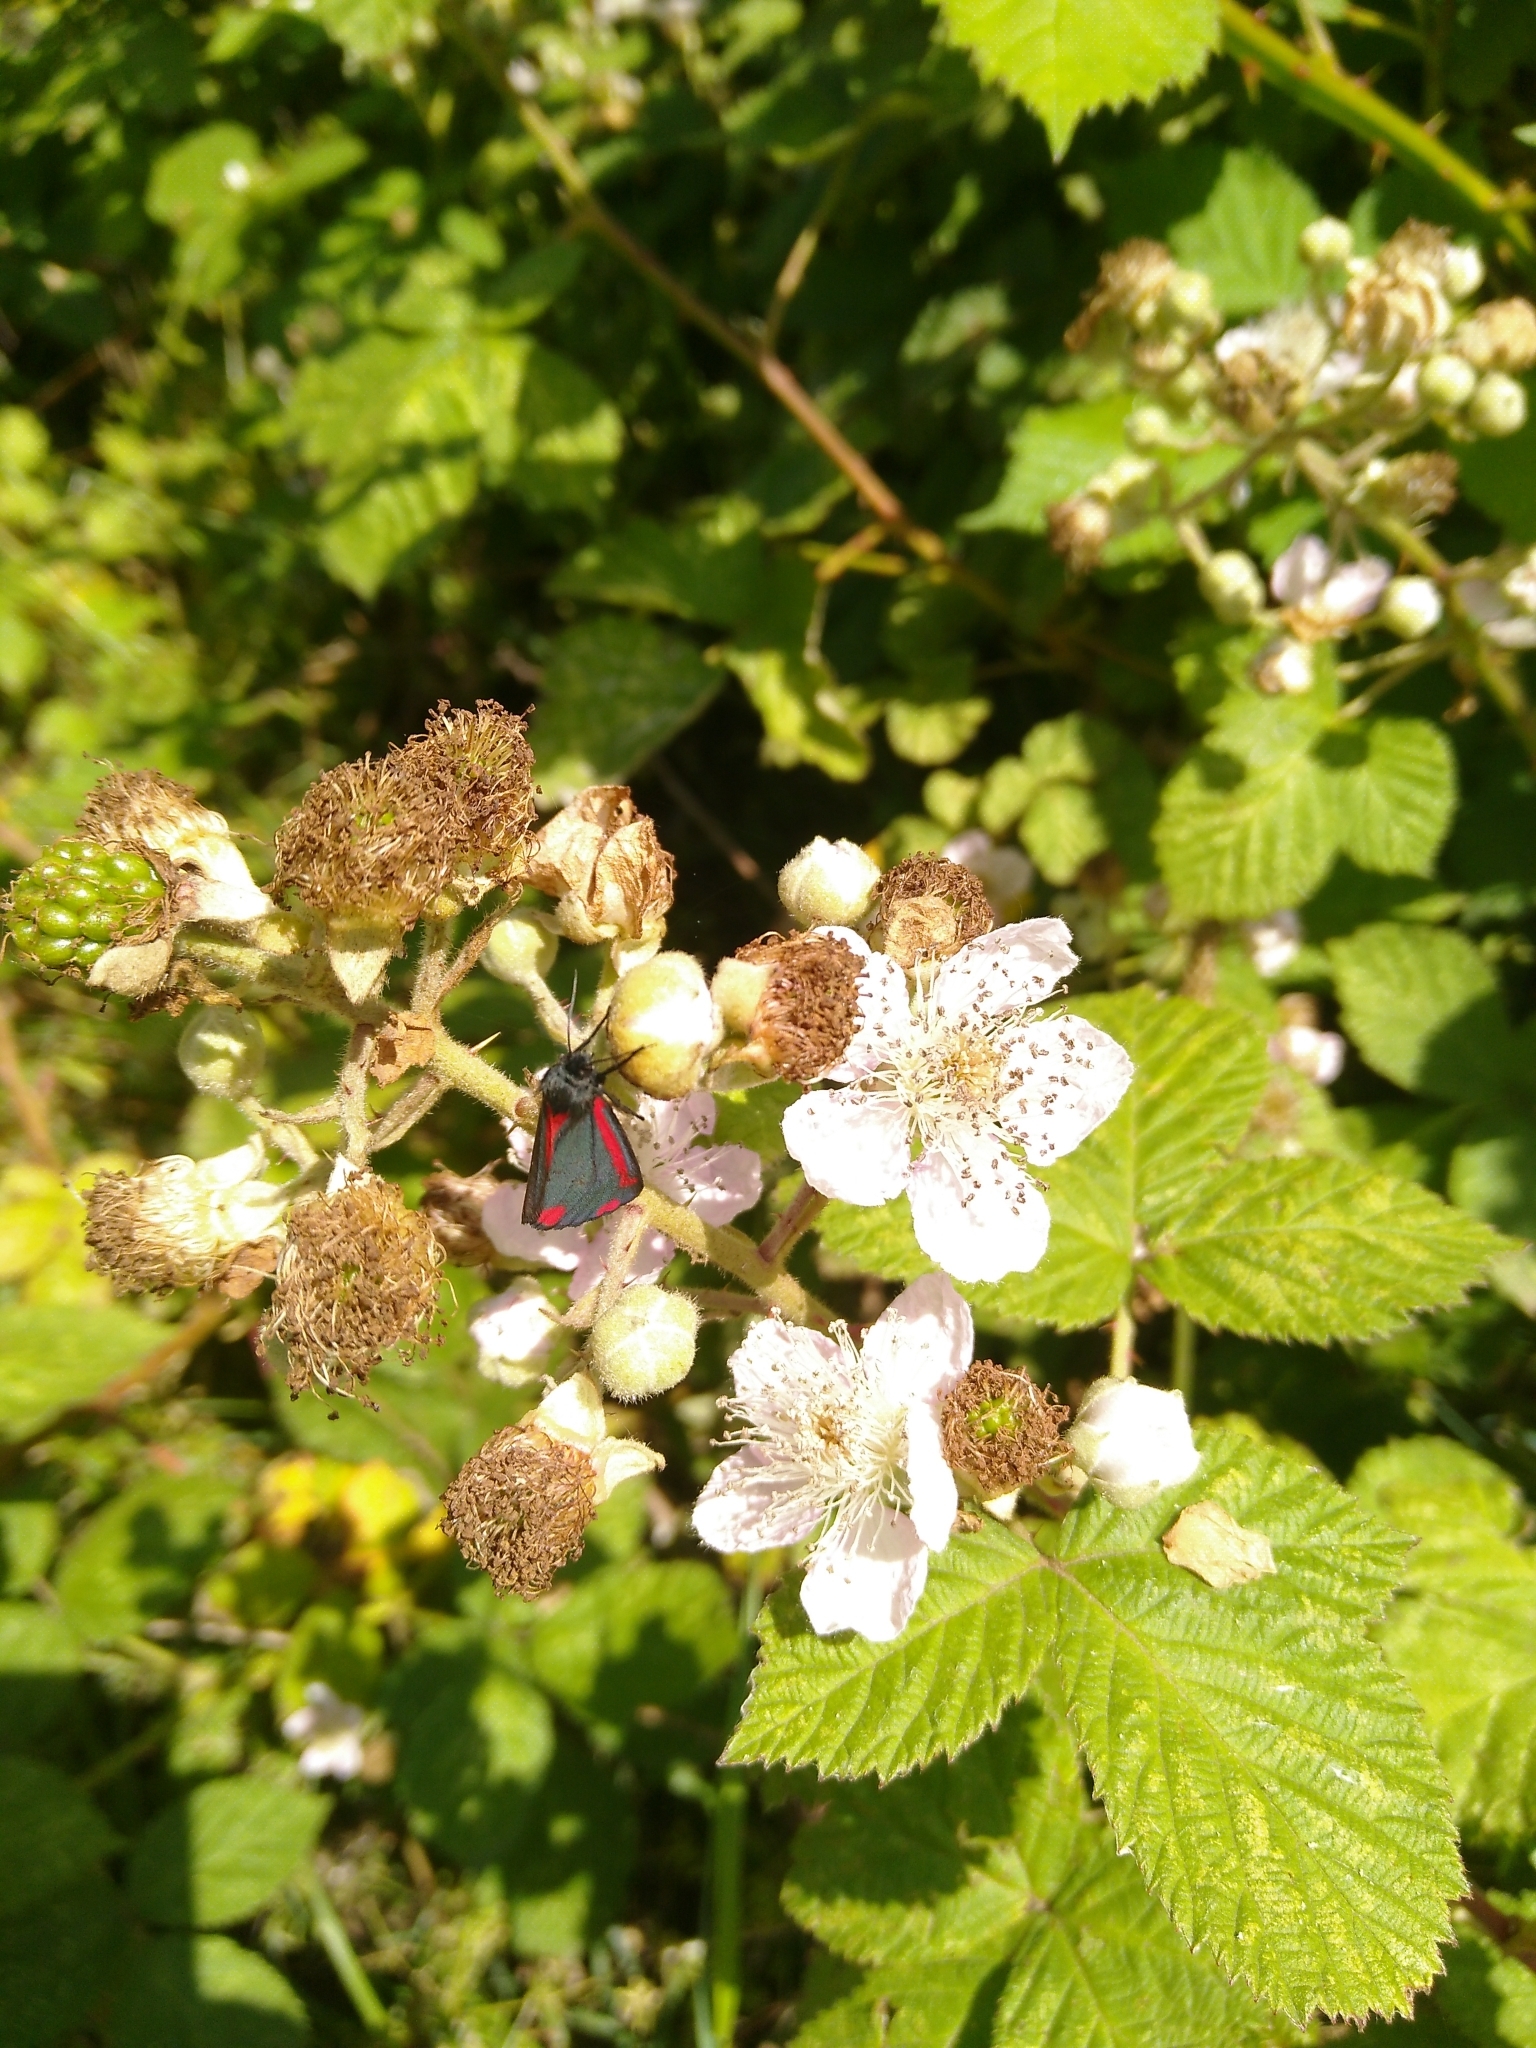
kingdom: Animalia
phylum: Arthropoda
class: Insecta
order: Lepidoptera
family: Erebidae
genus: Tyria
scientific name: Tyria jacobaeae
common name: Cinnabar
